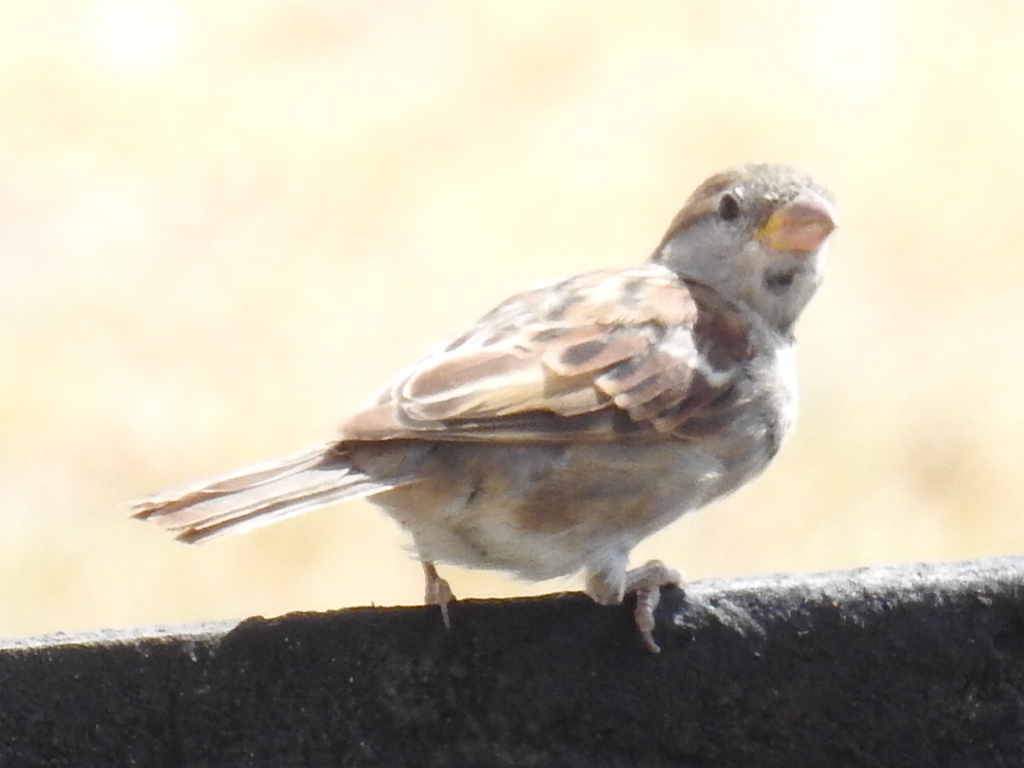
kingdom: Animalia
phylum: Chordata
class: Aves
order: Passeriformes
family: Passeridae
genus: Passer
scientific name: Passer domesticus
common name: House sparrow
